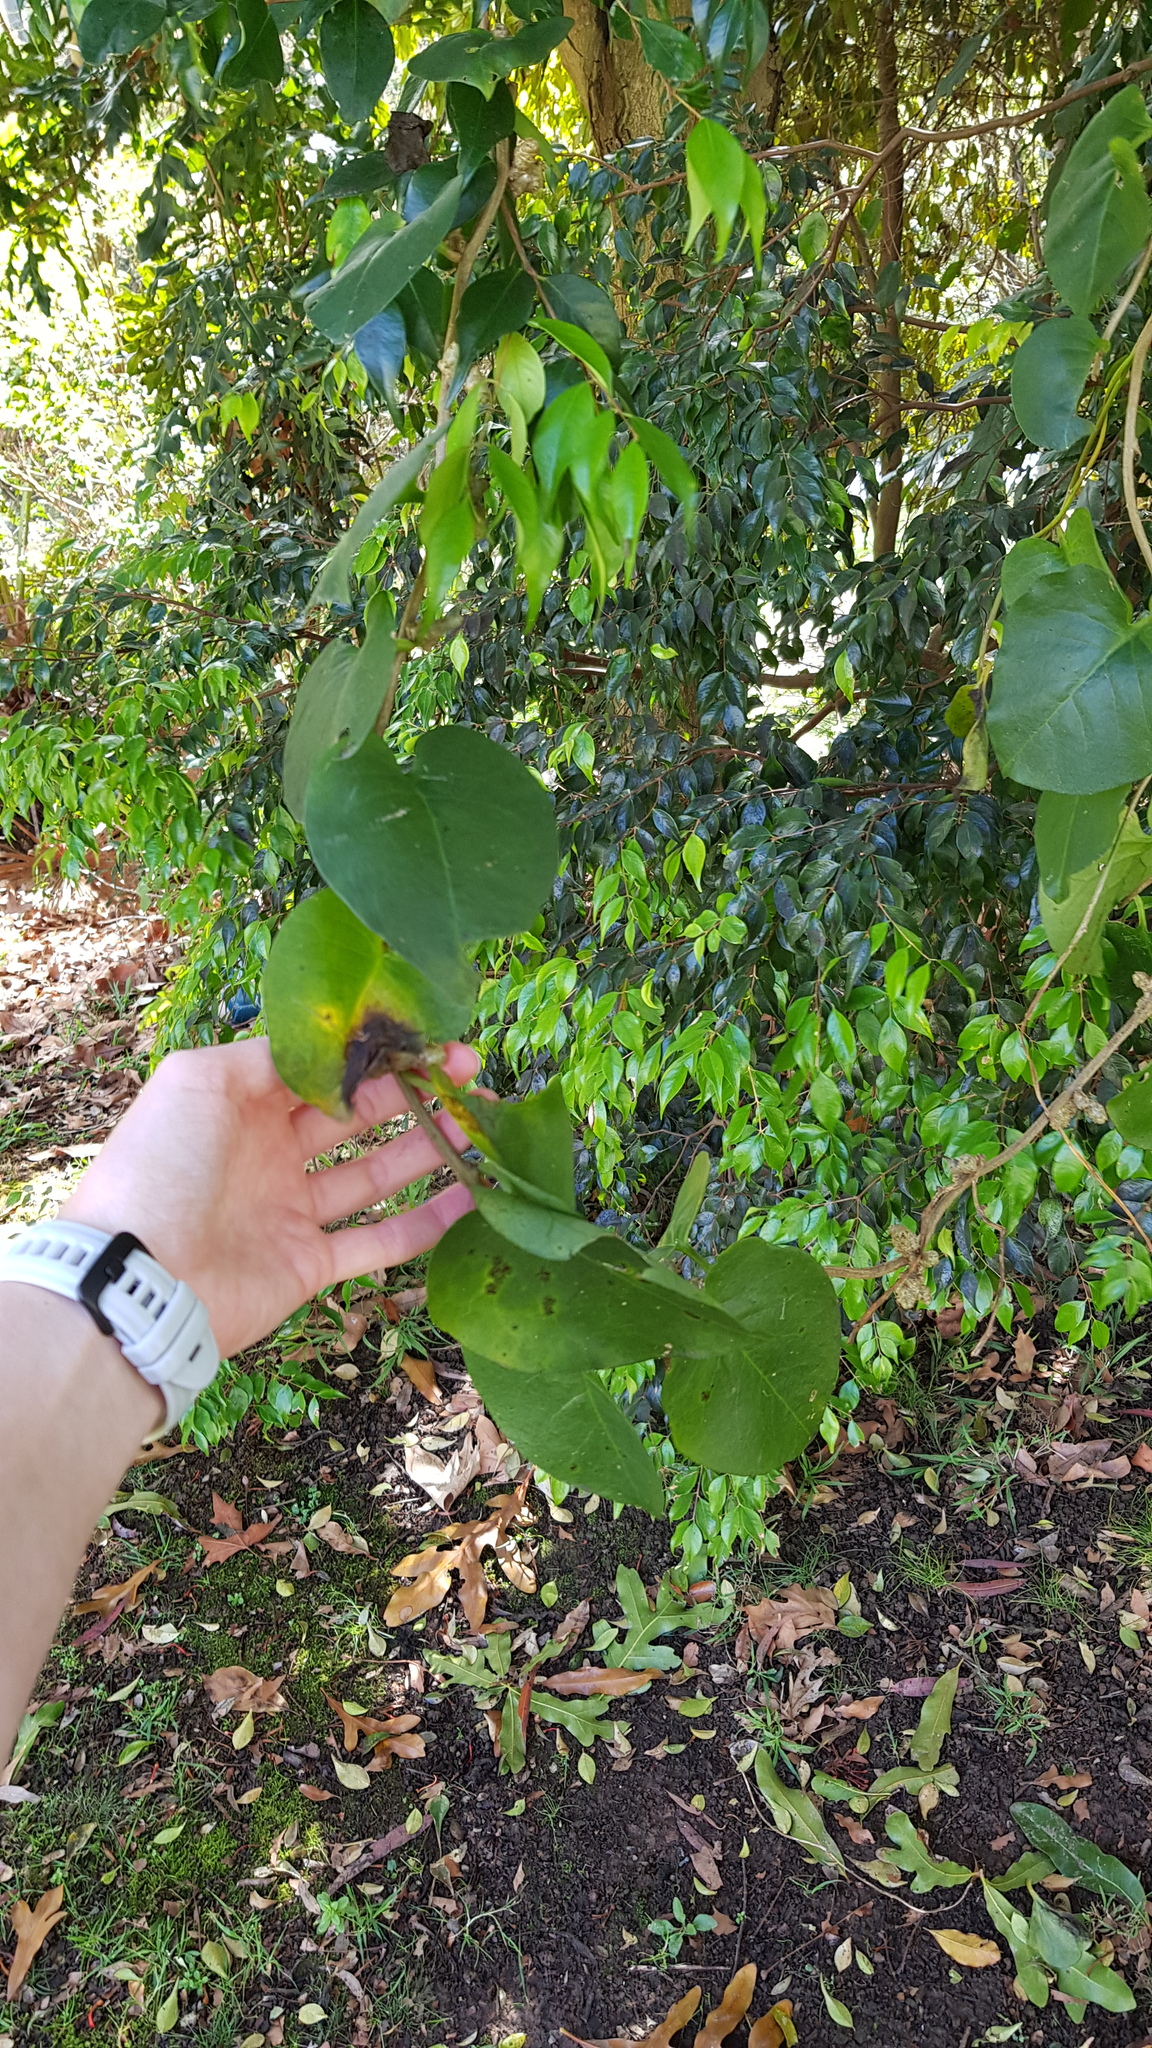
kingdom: Plantae
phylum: Tracheophyta
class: Magnoliopsida
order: Caryophyllales
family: Basellaceae
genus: Anredera
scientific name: Anredera cordifolia
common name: Heartleaf madeiravine
